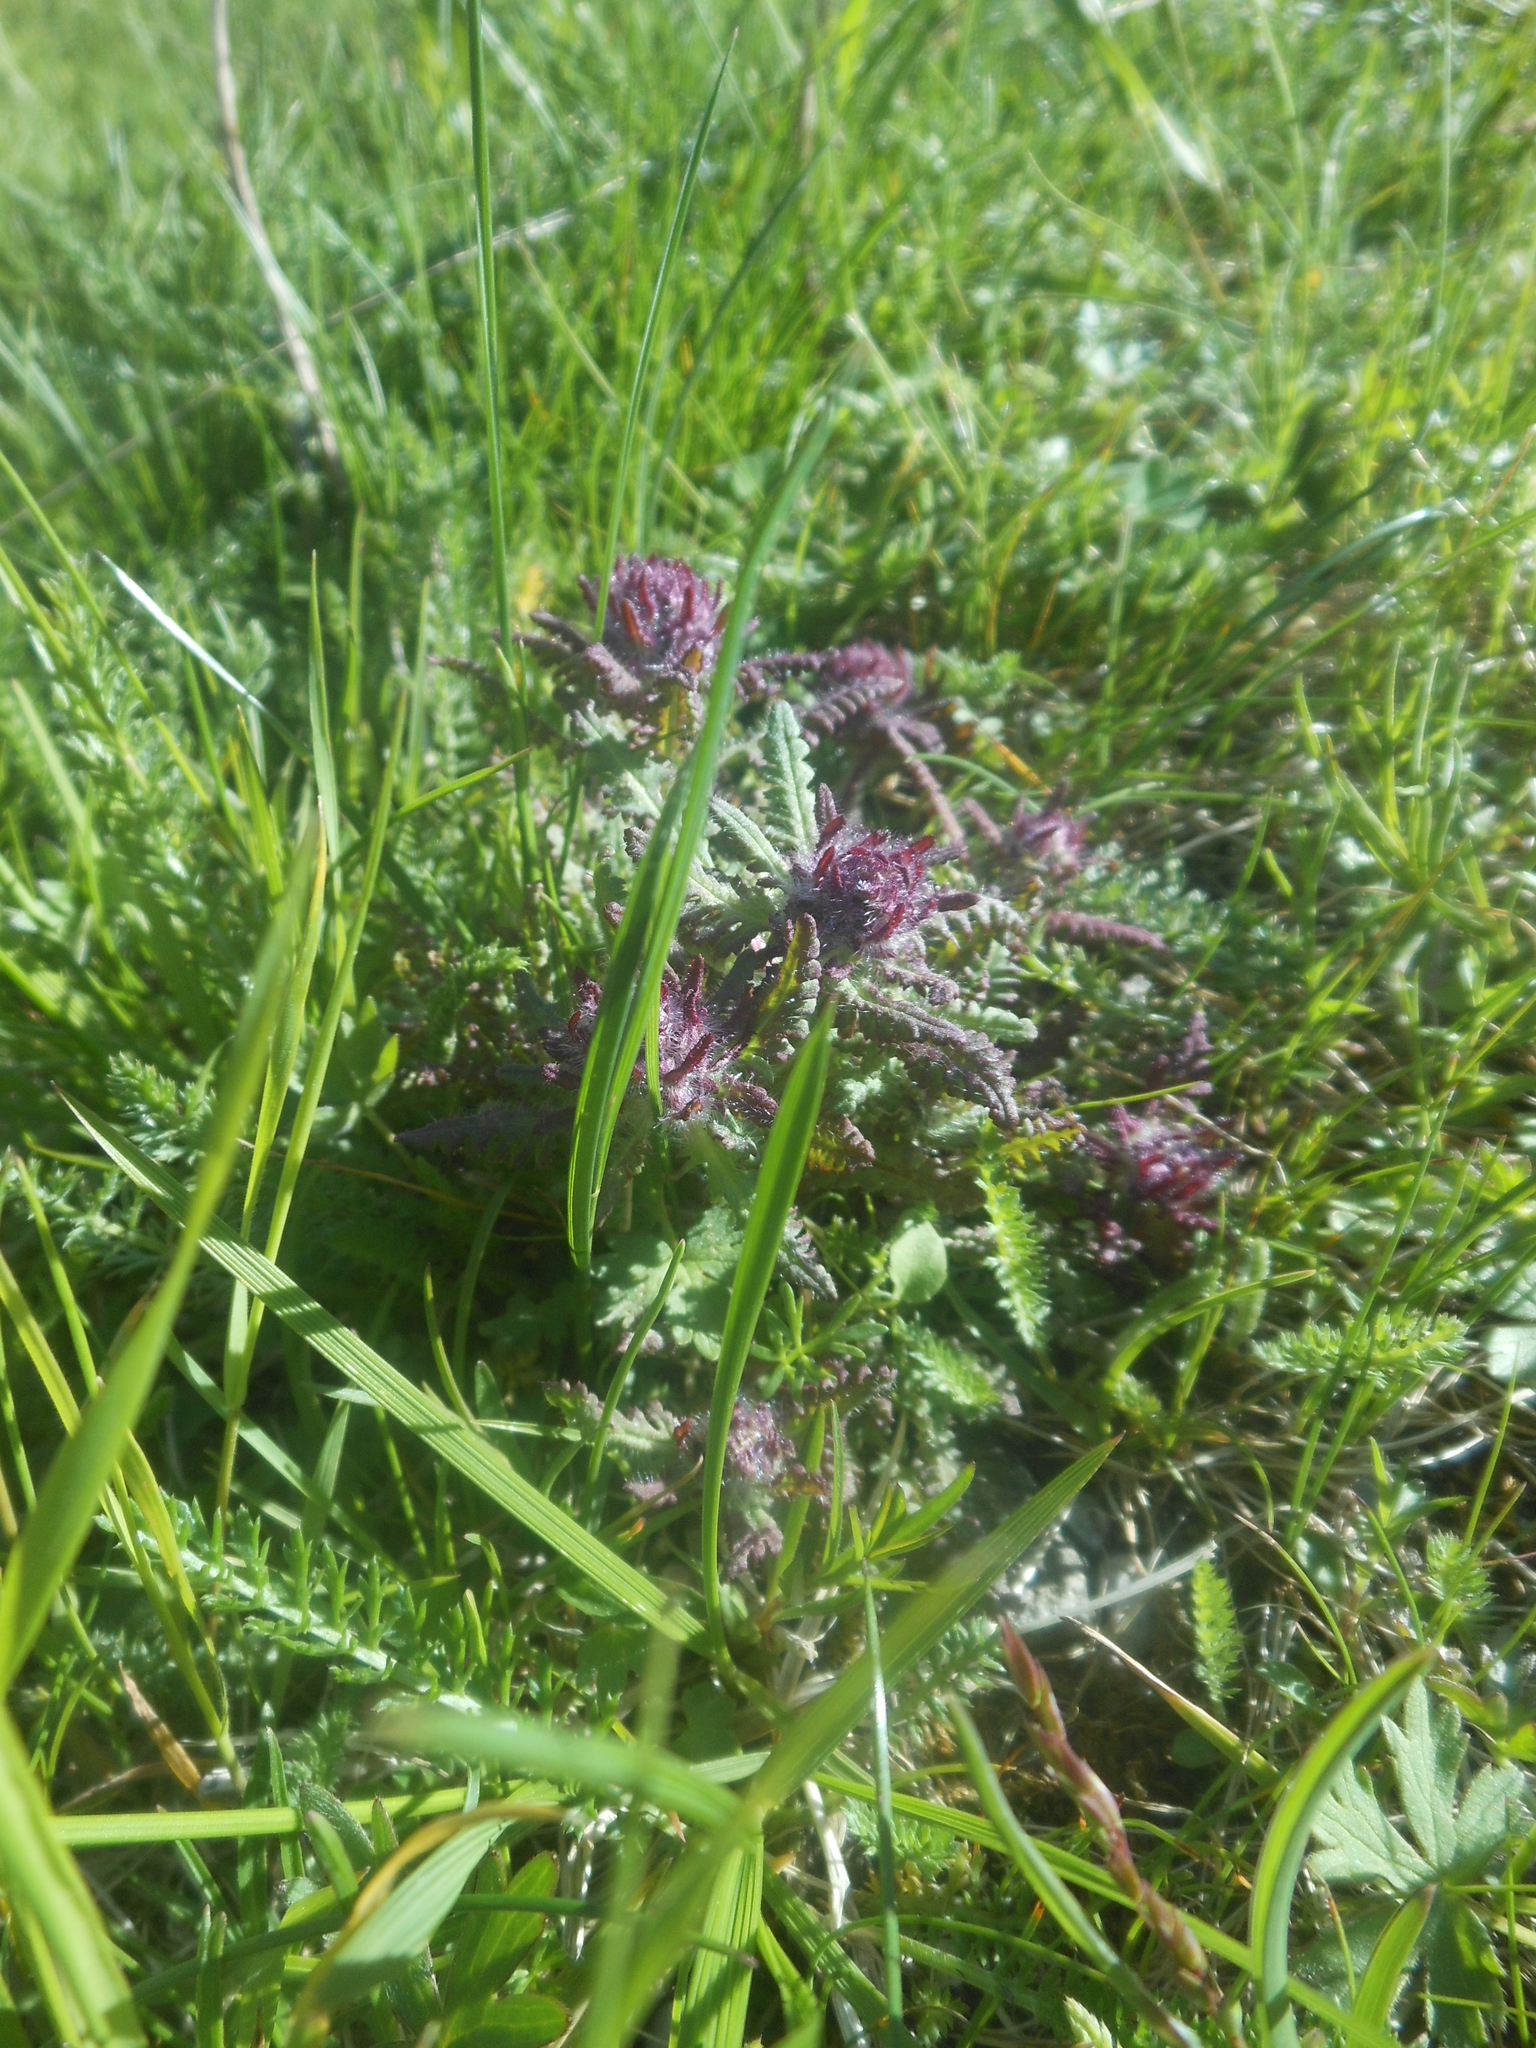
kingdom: Plantae
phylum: Tracheophyta
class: Magnoliopsida
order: Lamiales
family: Orobanchaceae
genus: Pedicularis
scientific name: Pedicularis verticillata
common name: Whorled lousewort
